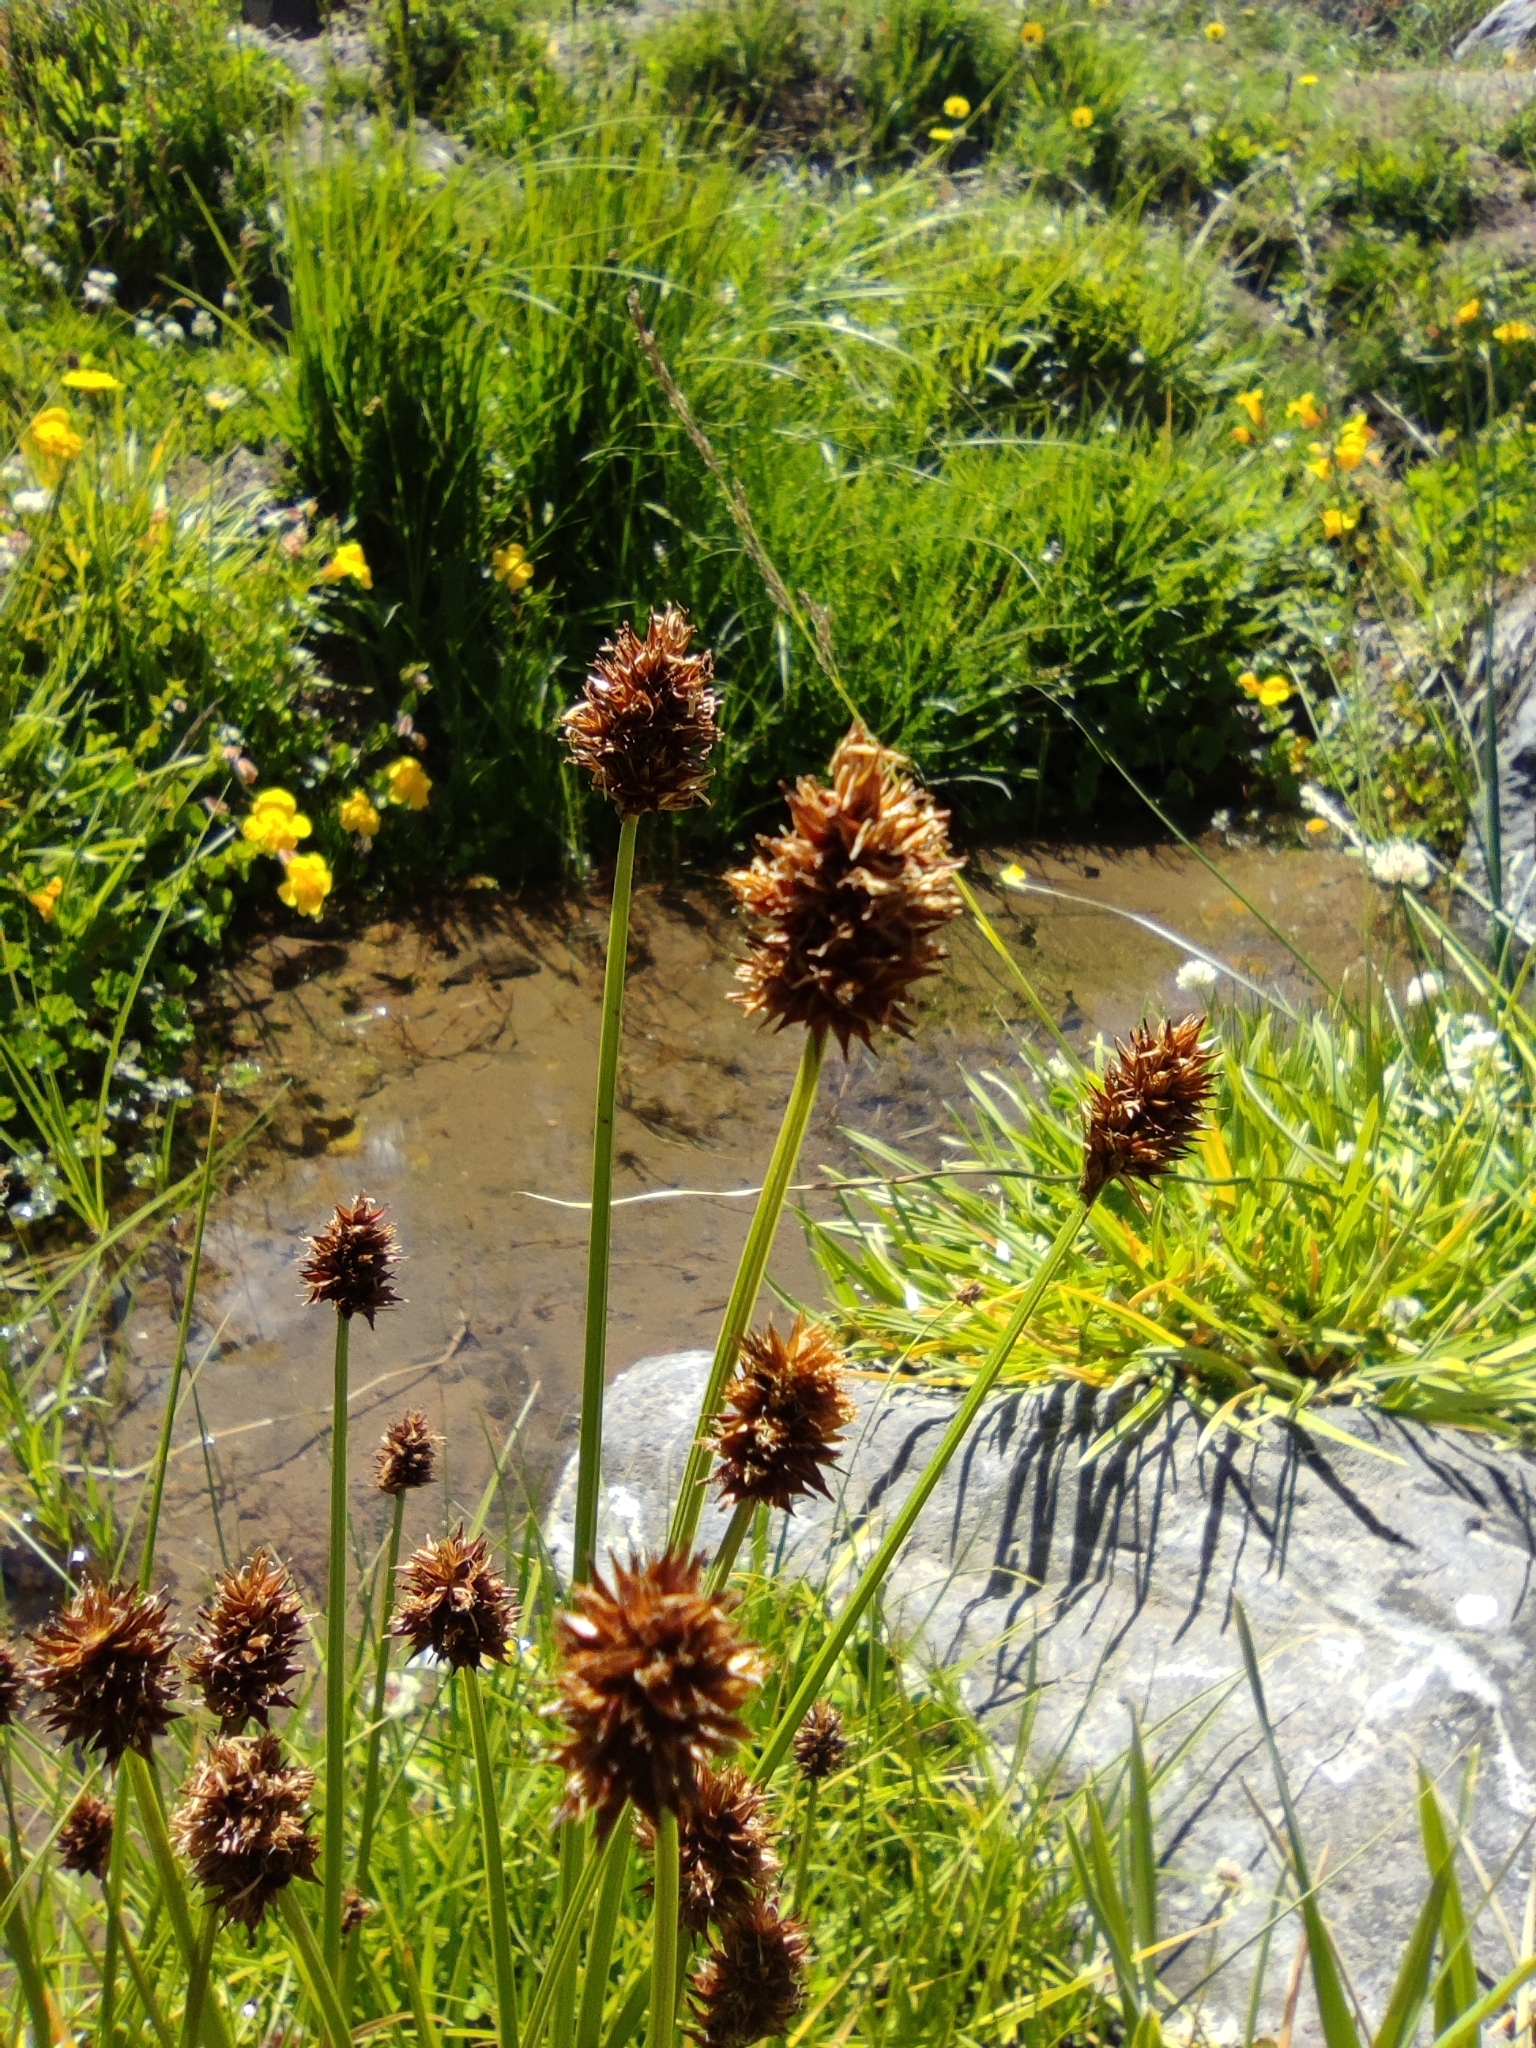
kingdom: Plantae
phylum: Tracheophyta
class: Liliopsida
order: Poales
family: Cyperaceae
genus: Carex
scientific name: Carex firmicaulis
